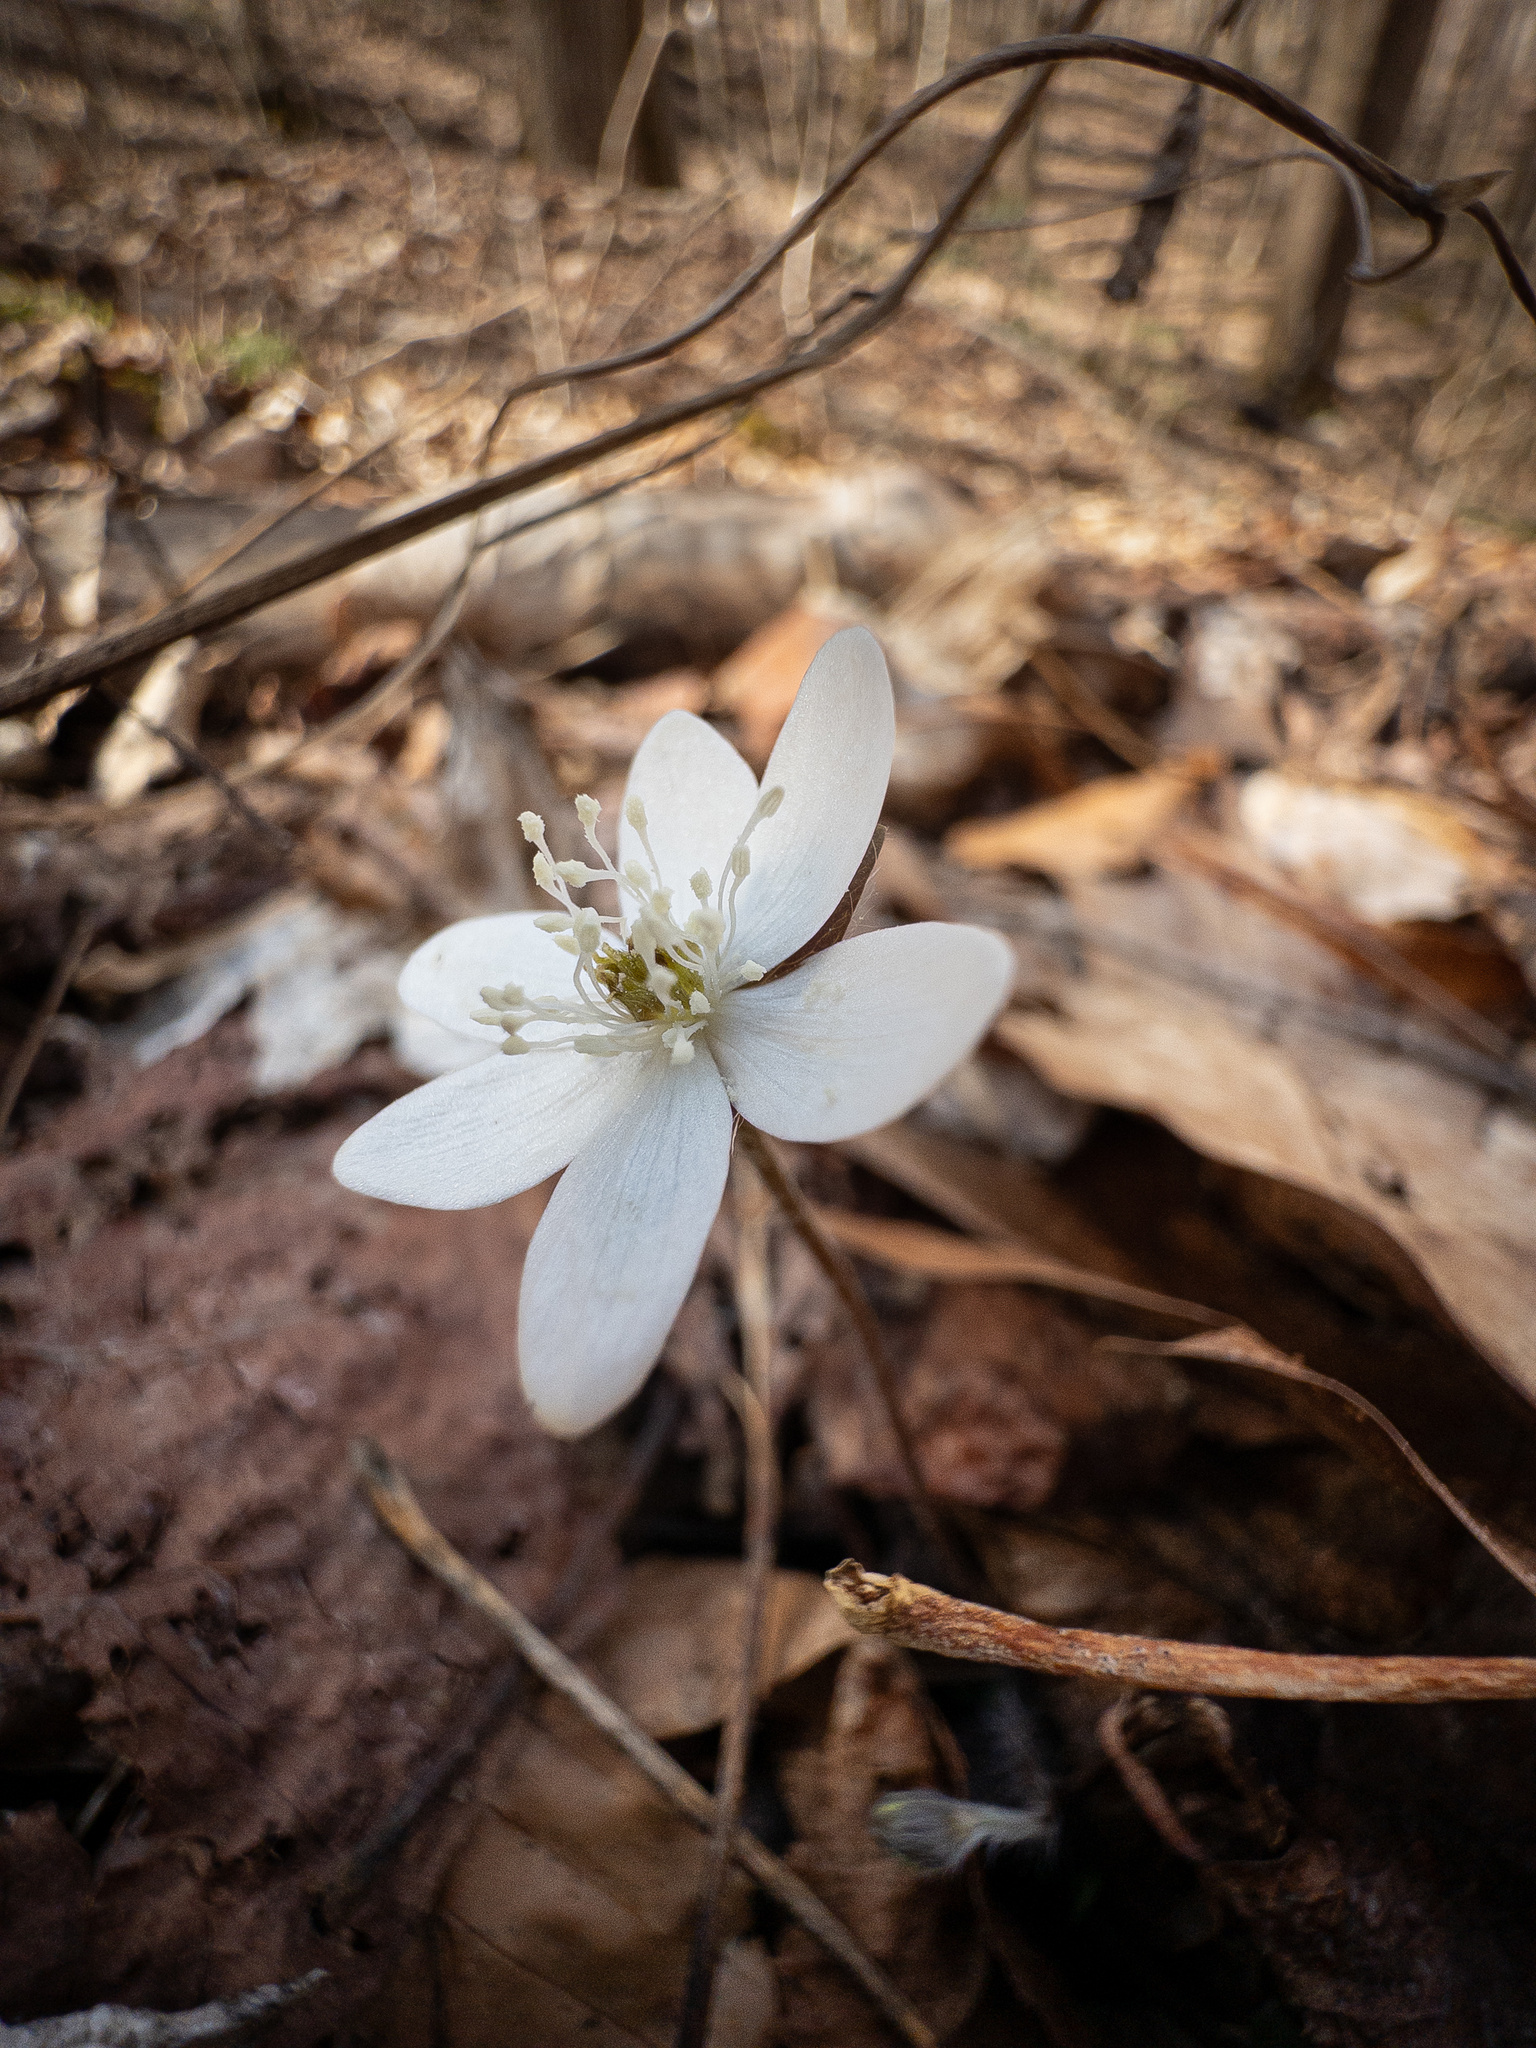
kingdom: Plantae
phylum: Tracheophyta
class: Magnoliopsida
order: Ranunculales
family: Ranunculaceae
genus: Hepatica
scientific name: Hepatica acutiloba
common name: Sharp-lobed hepatica
